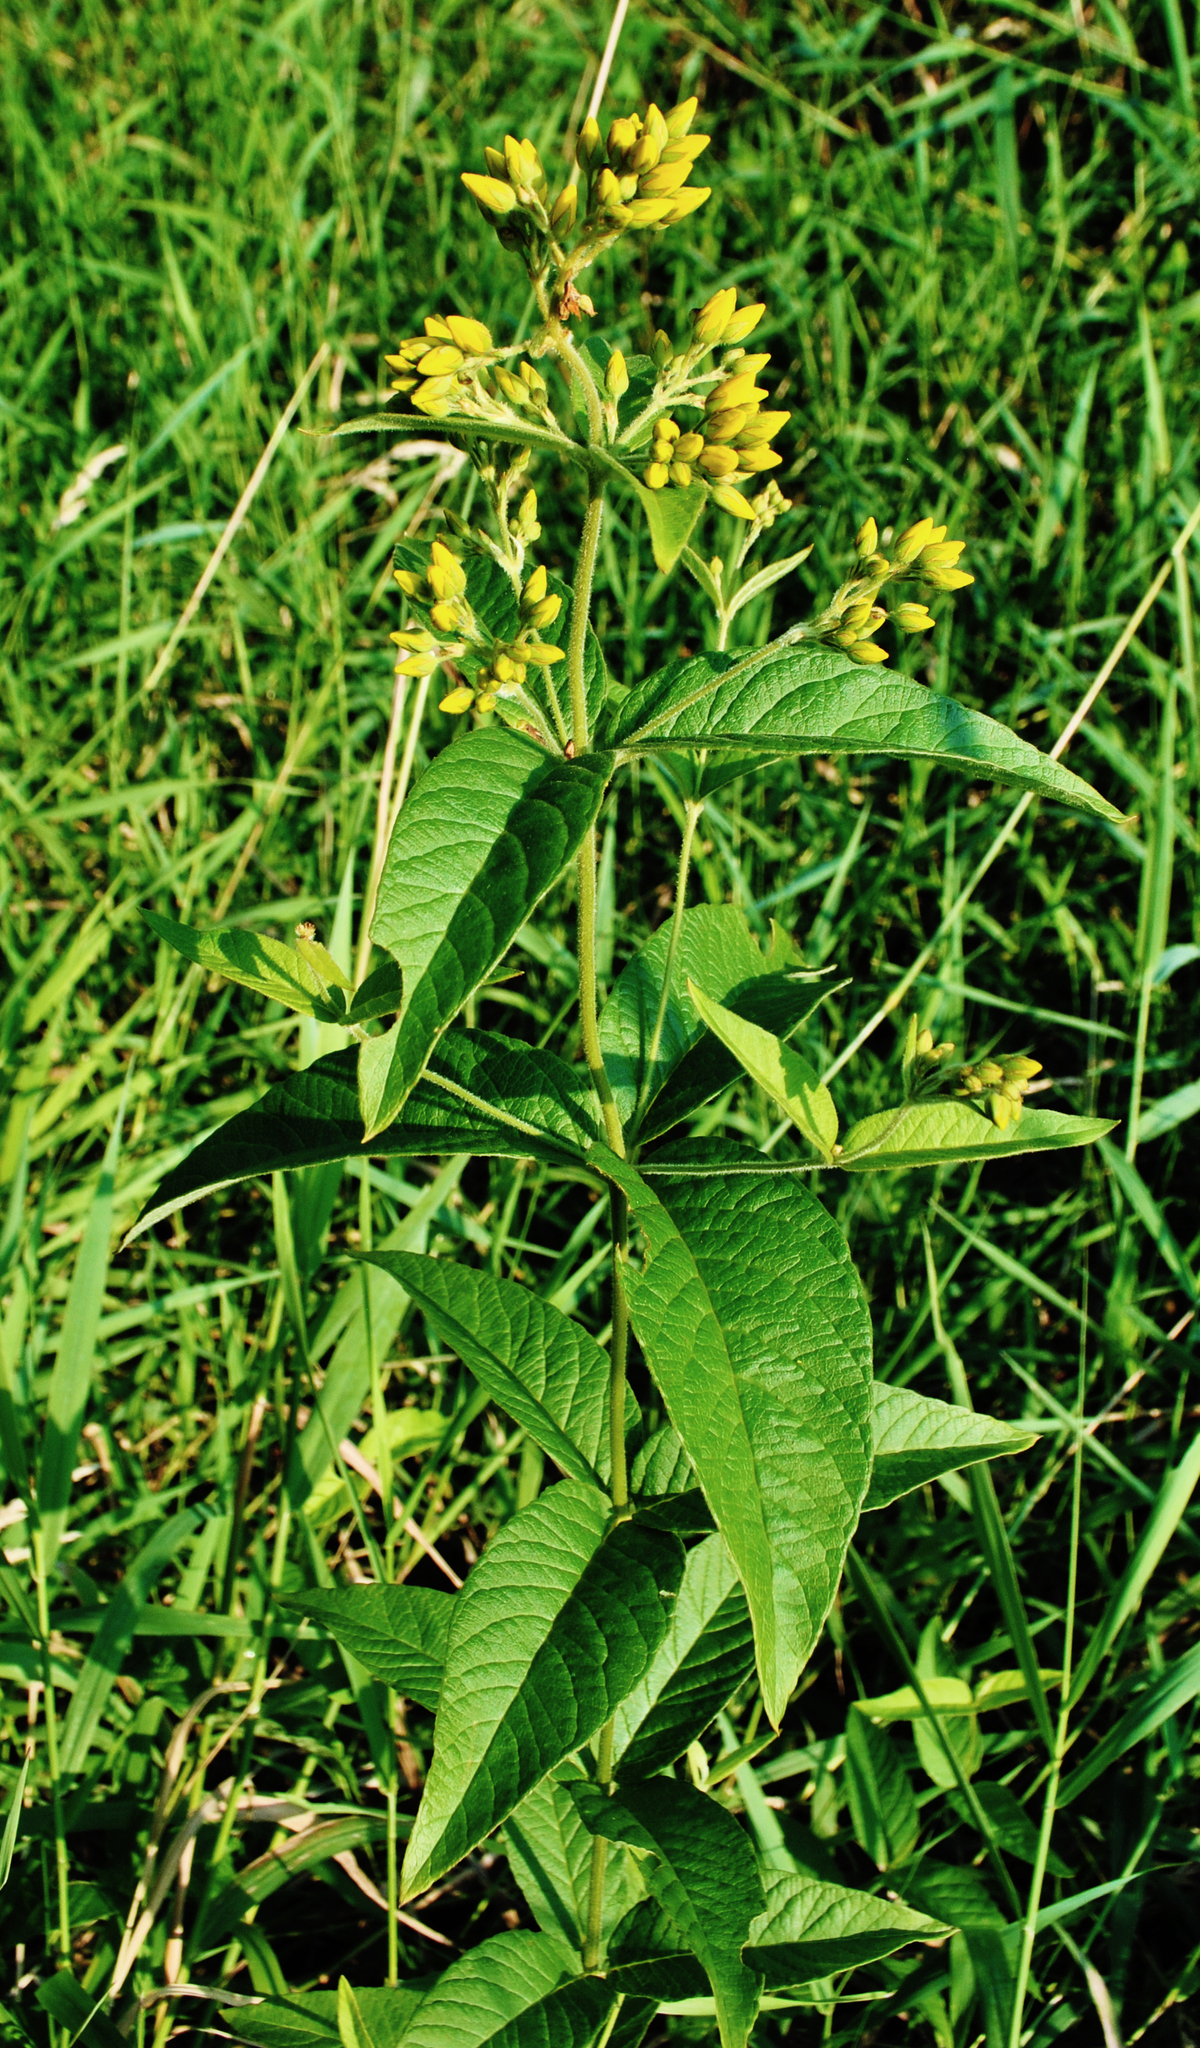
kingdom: Plantae
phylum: Tracheophyta
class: Magnoliopsida
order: Ericales
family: Primulaceae
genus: Lysimachia
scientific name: Lysimachia vulgaris
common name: Yellow loosestrife
